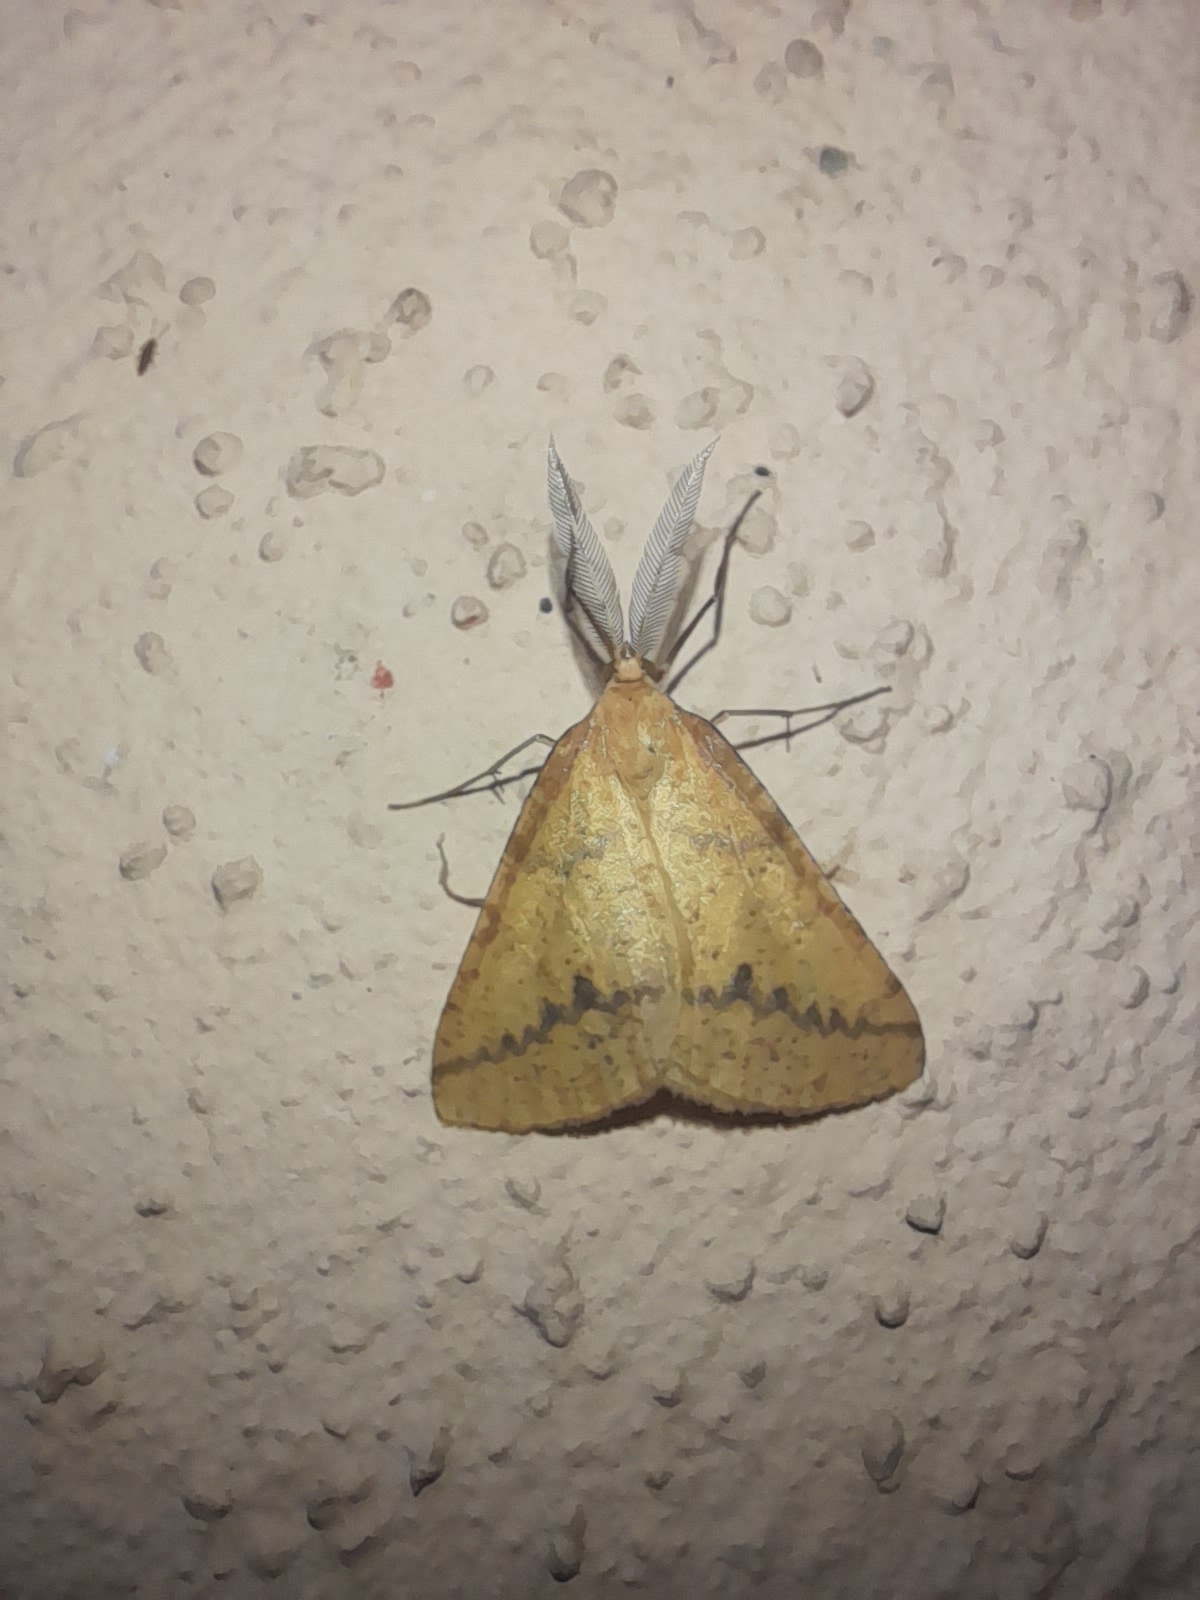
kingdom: Animalia
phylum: Arthropoda
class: Insecta
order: Lepidoptera
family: Geometridae
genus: Aspitates
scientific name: Aspitates ochrearia
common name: Yellow belle
